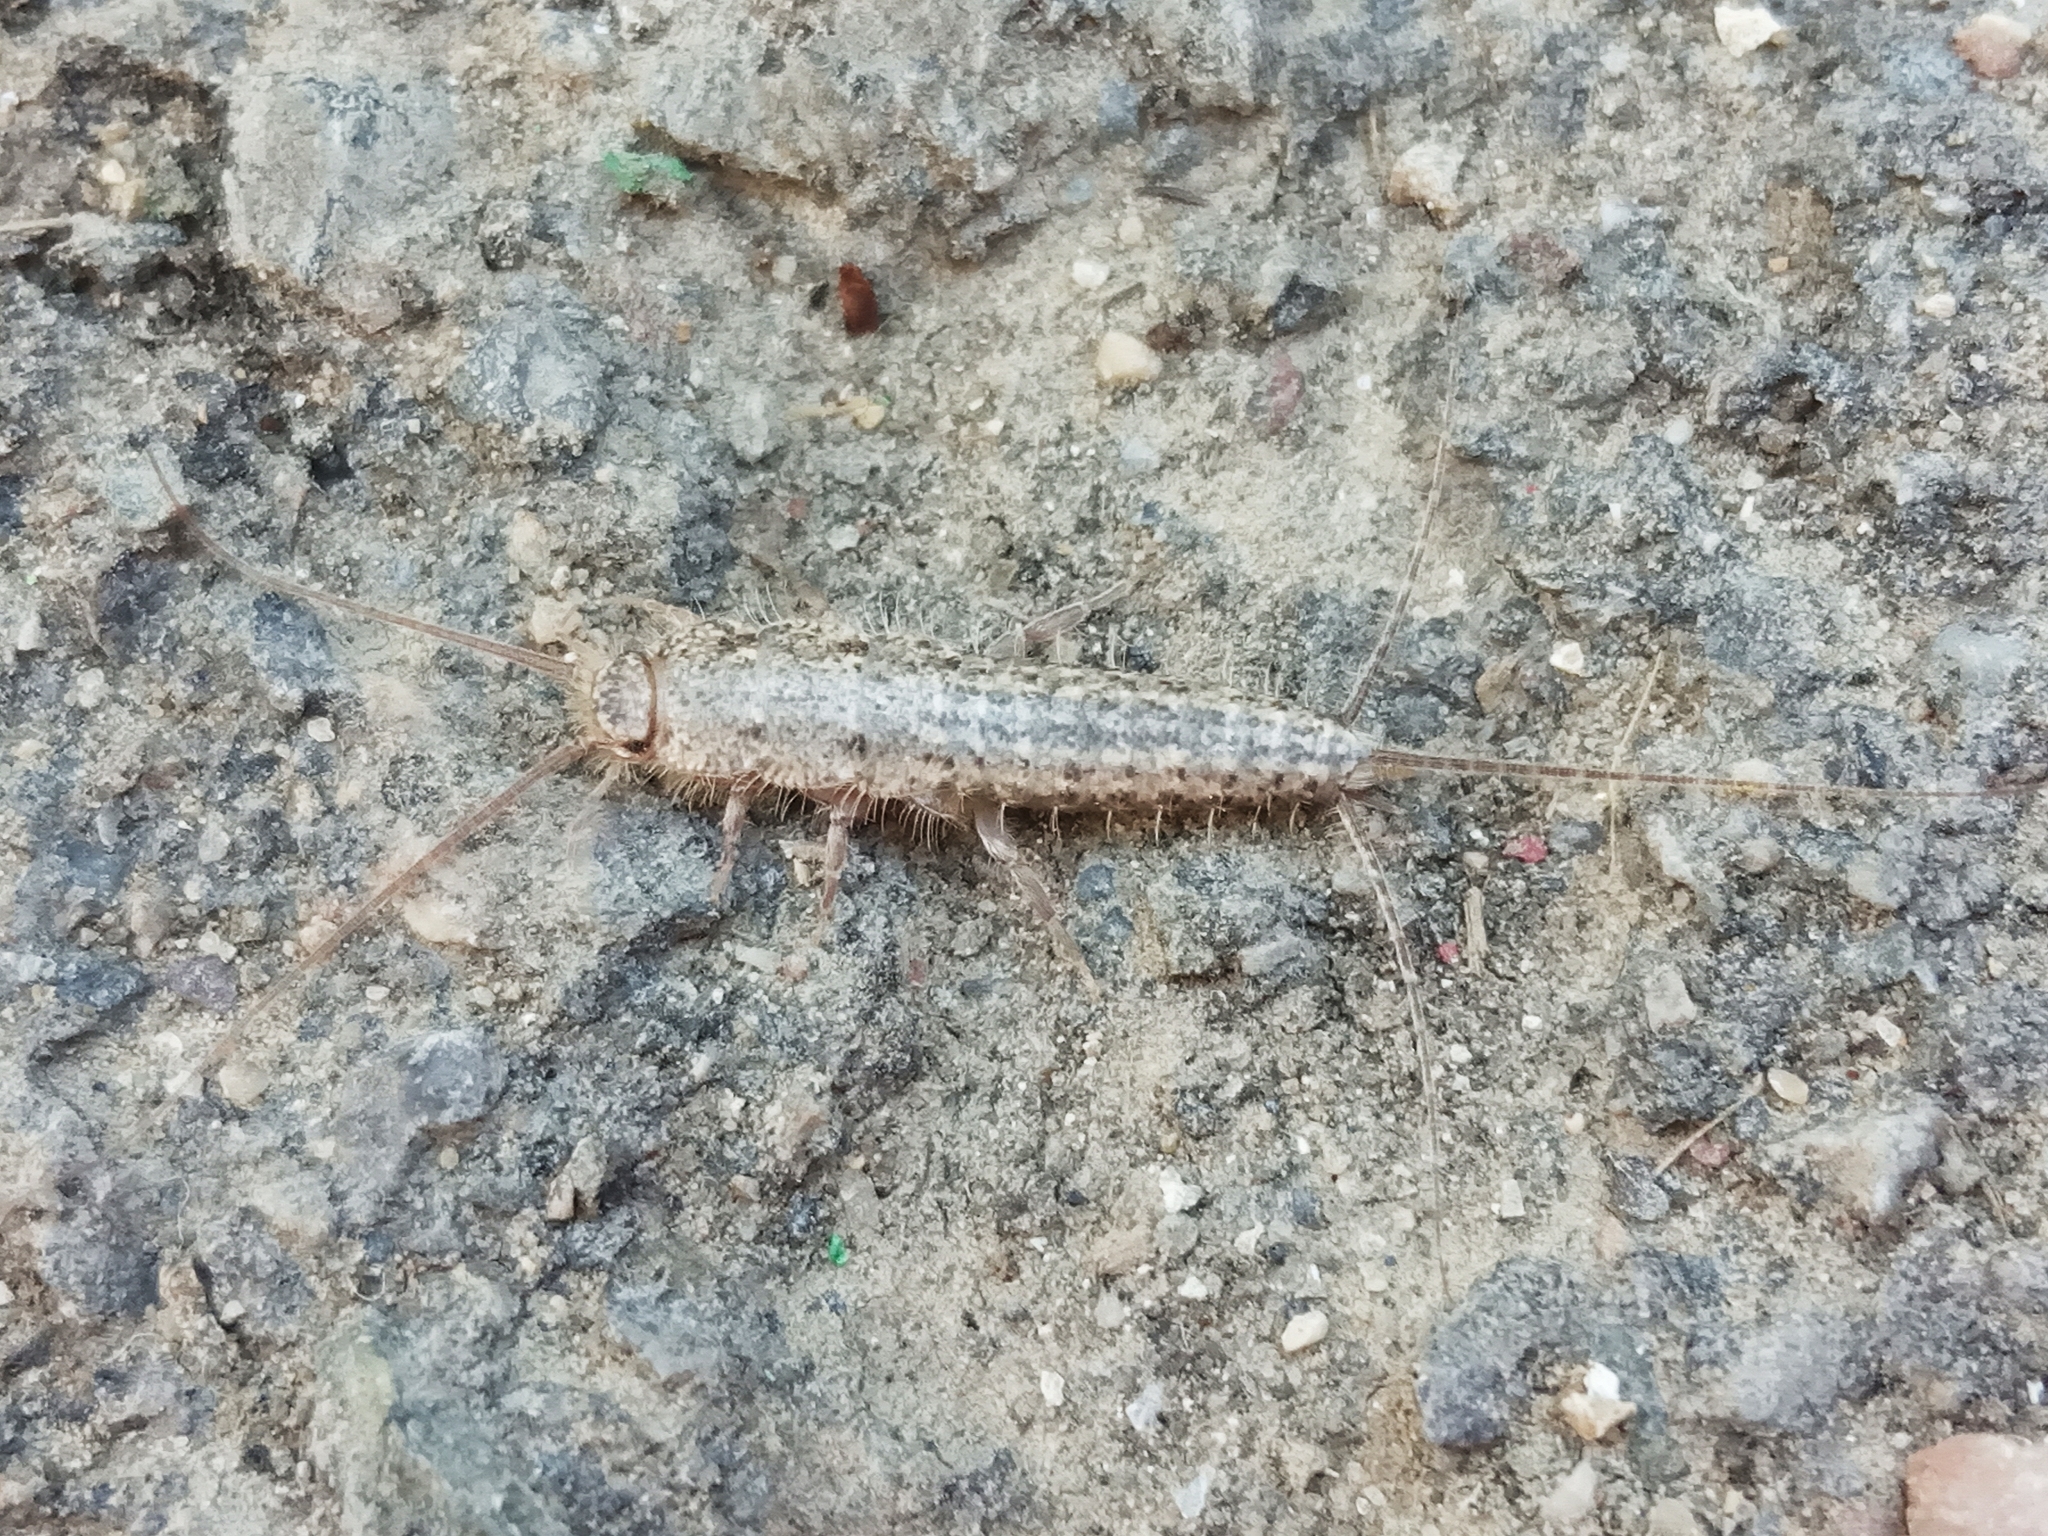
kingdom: Animalia
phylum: Arthropoda
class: Insecta
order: Zygentoma
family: Lepismatidae
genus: Ctenolepisma
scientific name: Ctenolepisma lineata
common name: Four-lined silverfish
